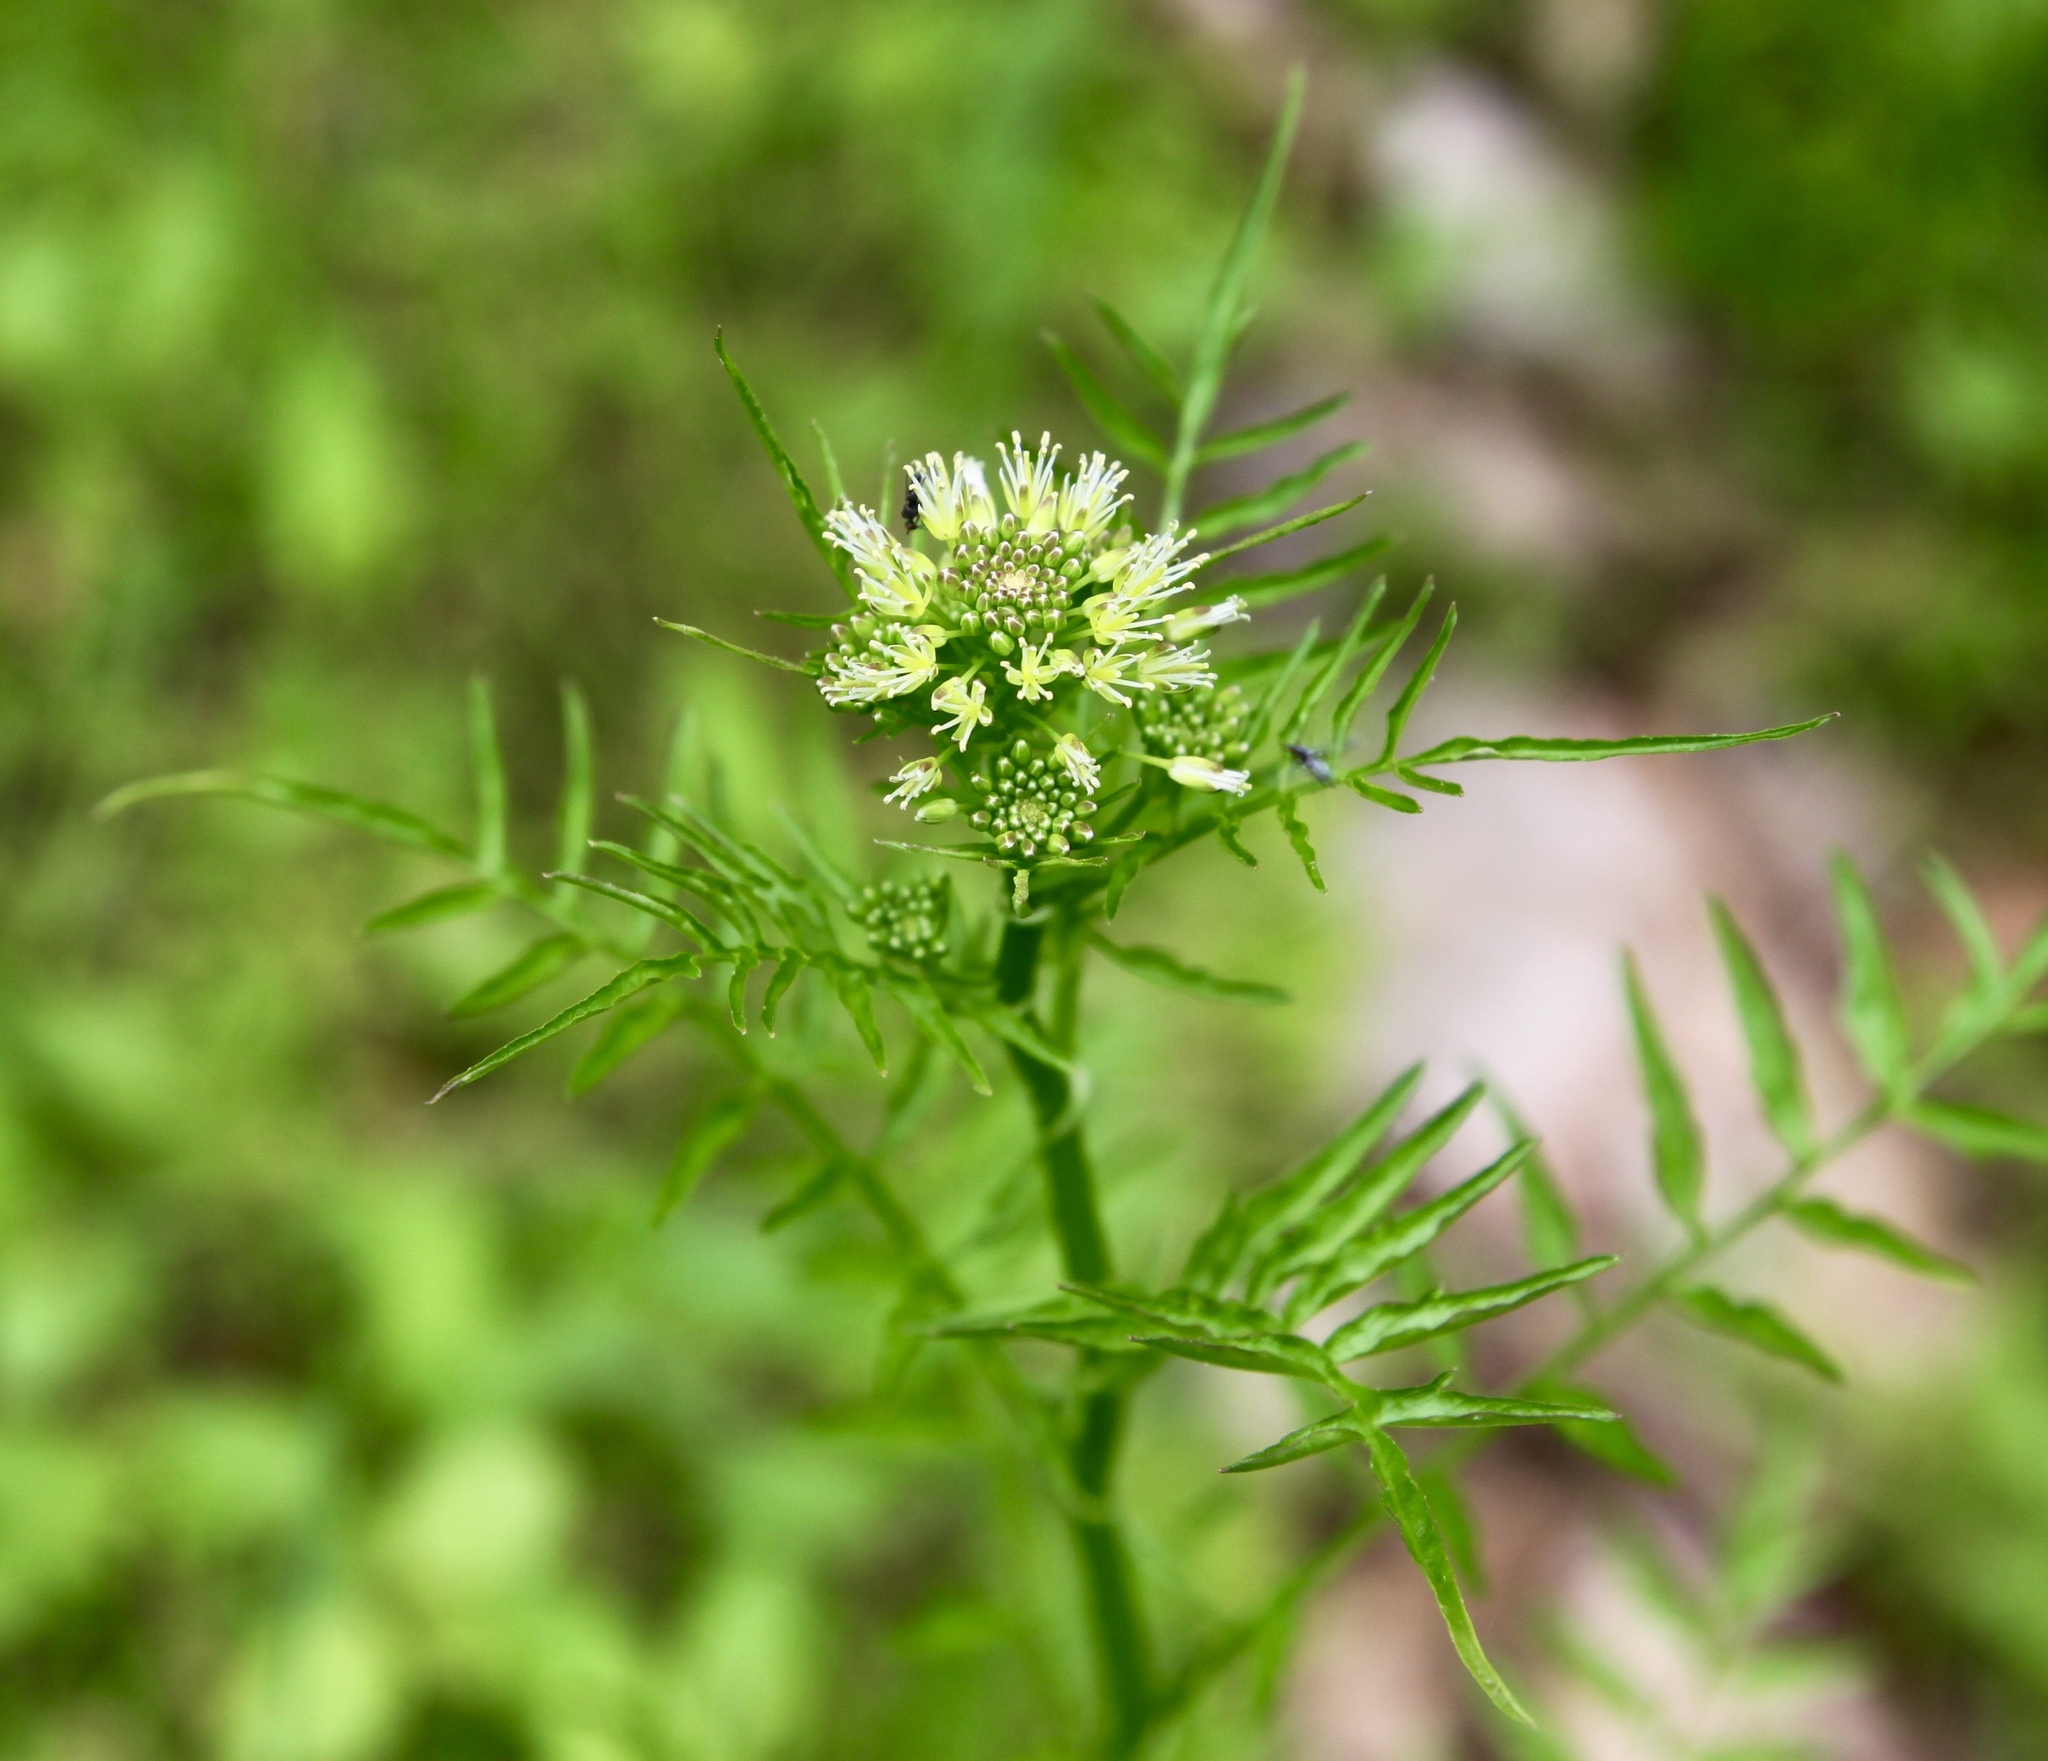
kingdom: Plantae
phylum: Tracheophyta
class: Magnoliopsida
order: Brassicales
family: Brassicaceae
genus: Cardamine
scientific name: Cardamine impatiens
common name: Narrow-leaved bitter-cress
